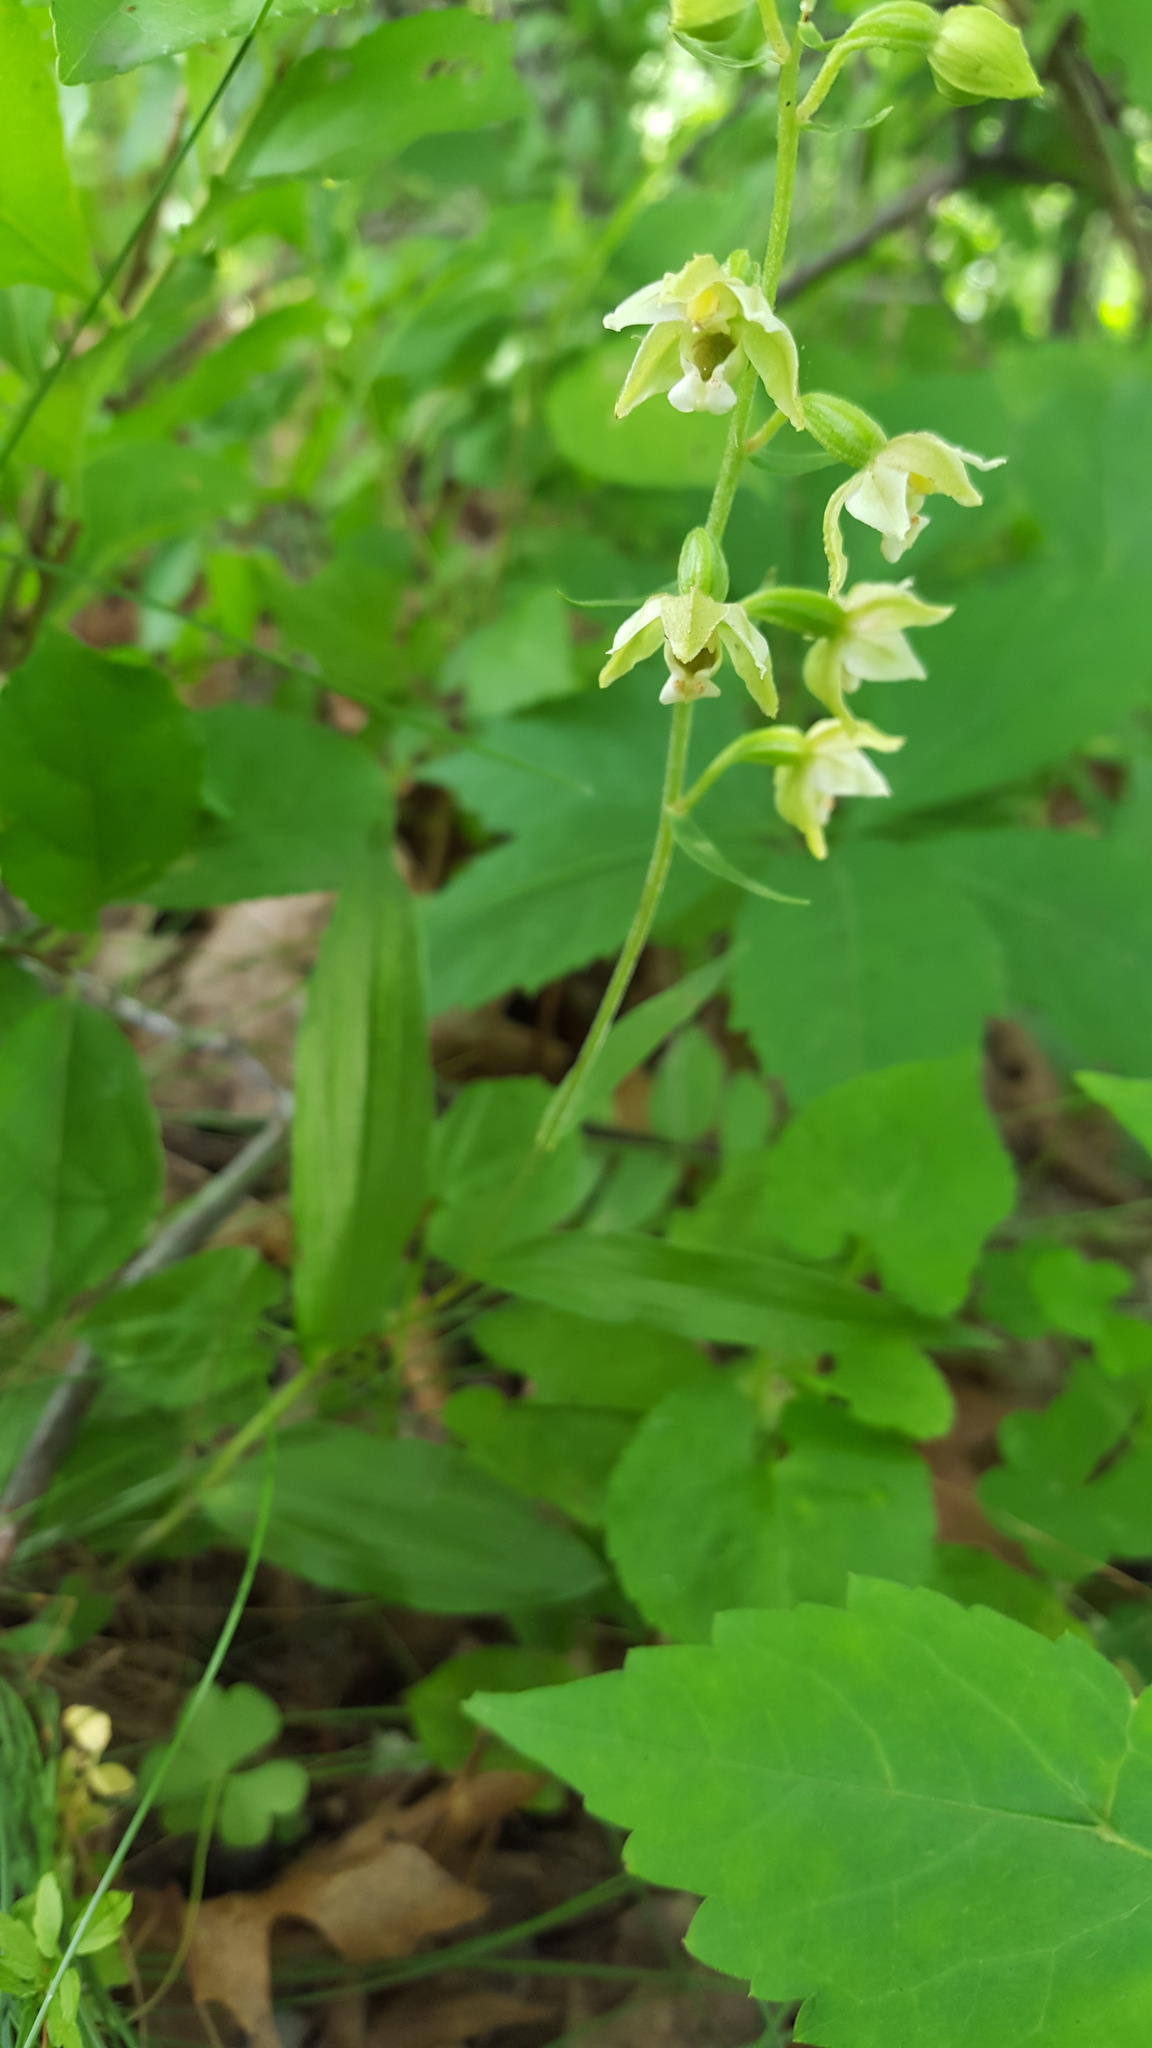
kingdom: Plantae
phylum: Tracheophyta
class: Liliopsida
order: Asparagales
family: Orchidaceae
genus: Epipactis
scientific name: Epipactis helleborine
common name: Broad-leaved helleborine
